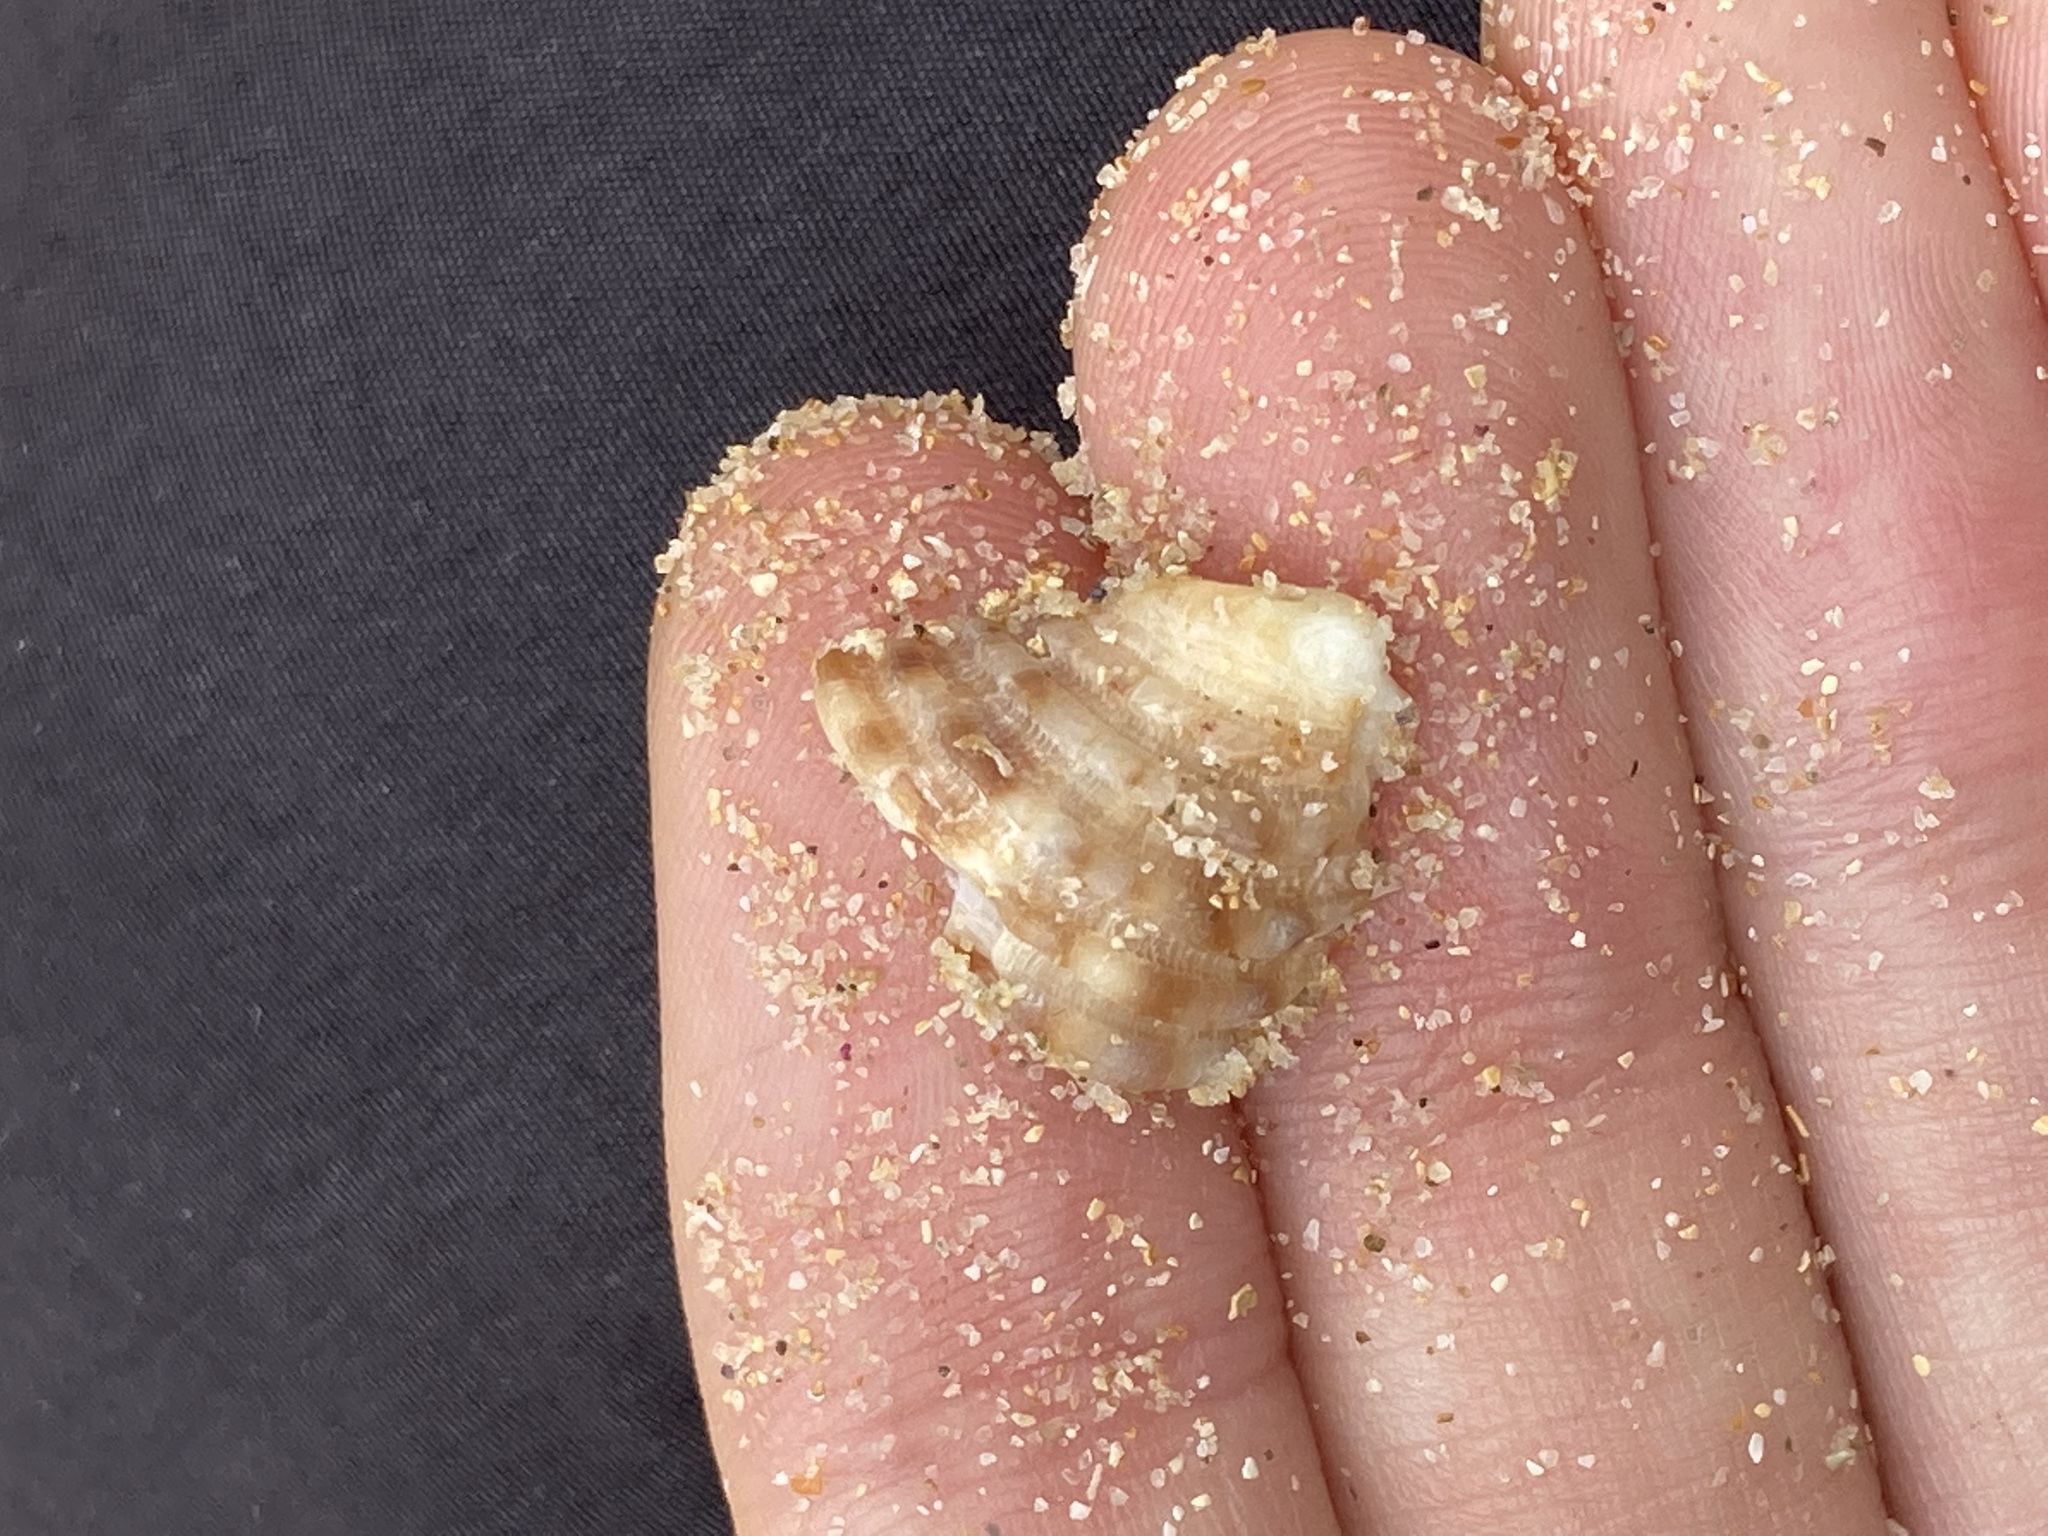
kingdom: Animalia
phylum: Mollusca
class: Gastropoda
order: Neogastropoda
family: Muricidae
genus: Dicathais
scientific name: Dicathais orbita
